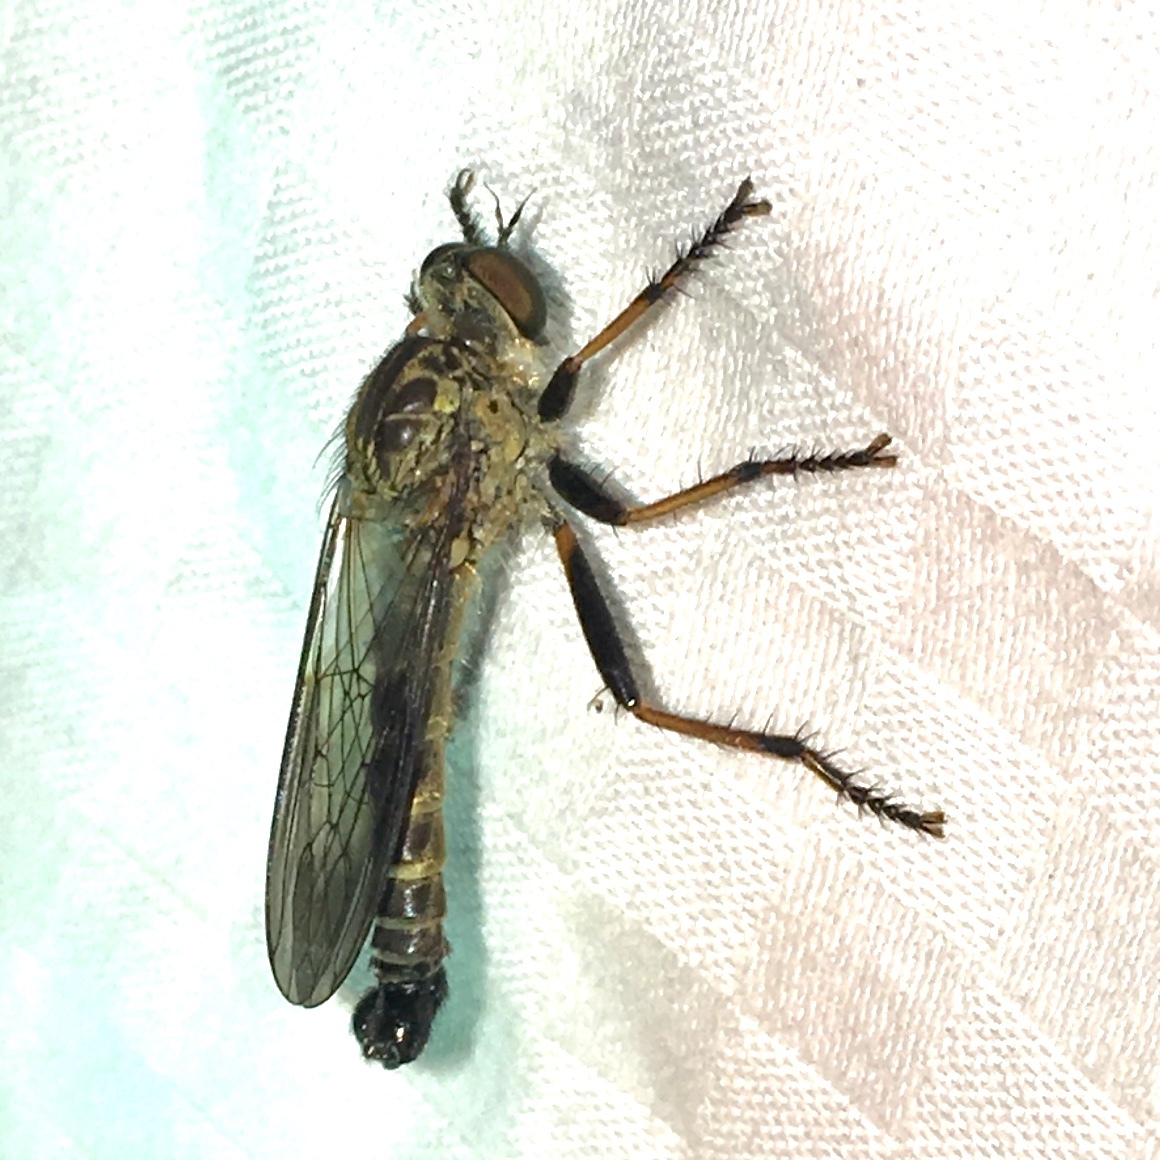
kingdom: Animalia
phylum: Arthropoda
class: Insecta
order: Diptera
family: Asilidae
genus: Neomochtherus
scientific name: Neomochtherus latipennis
